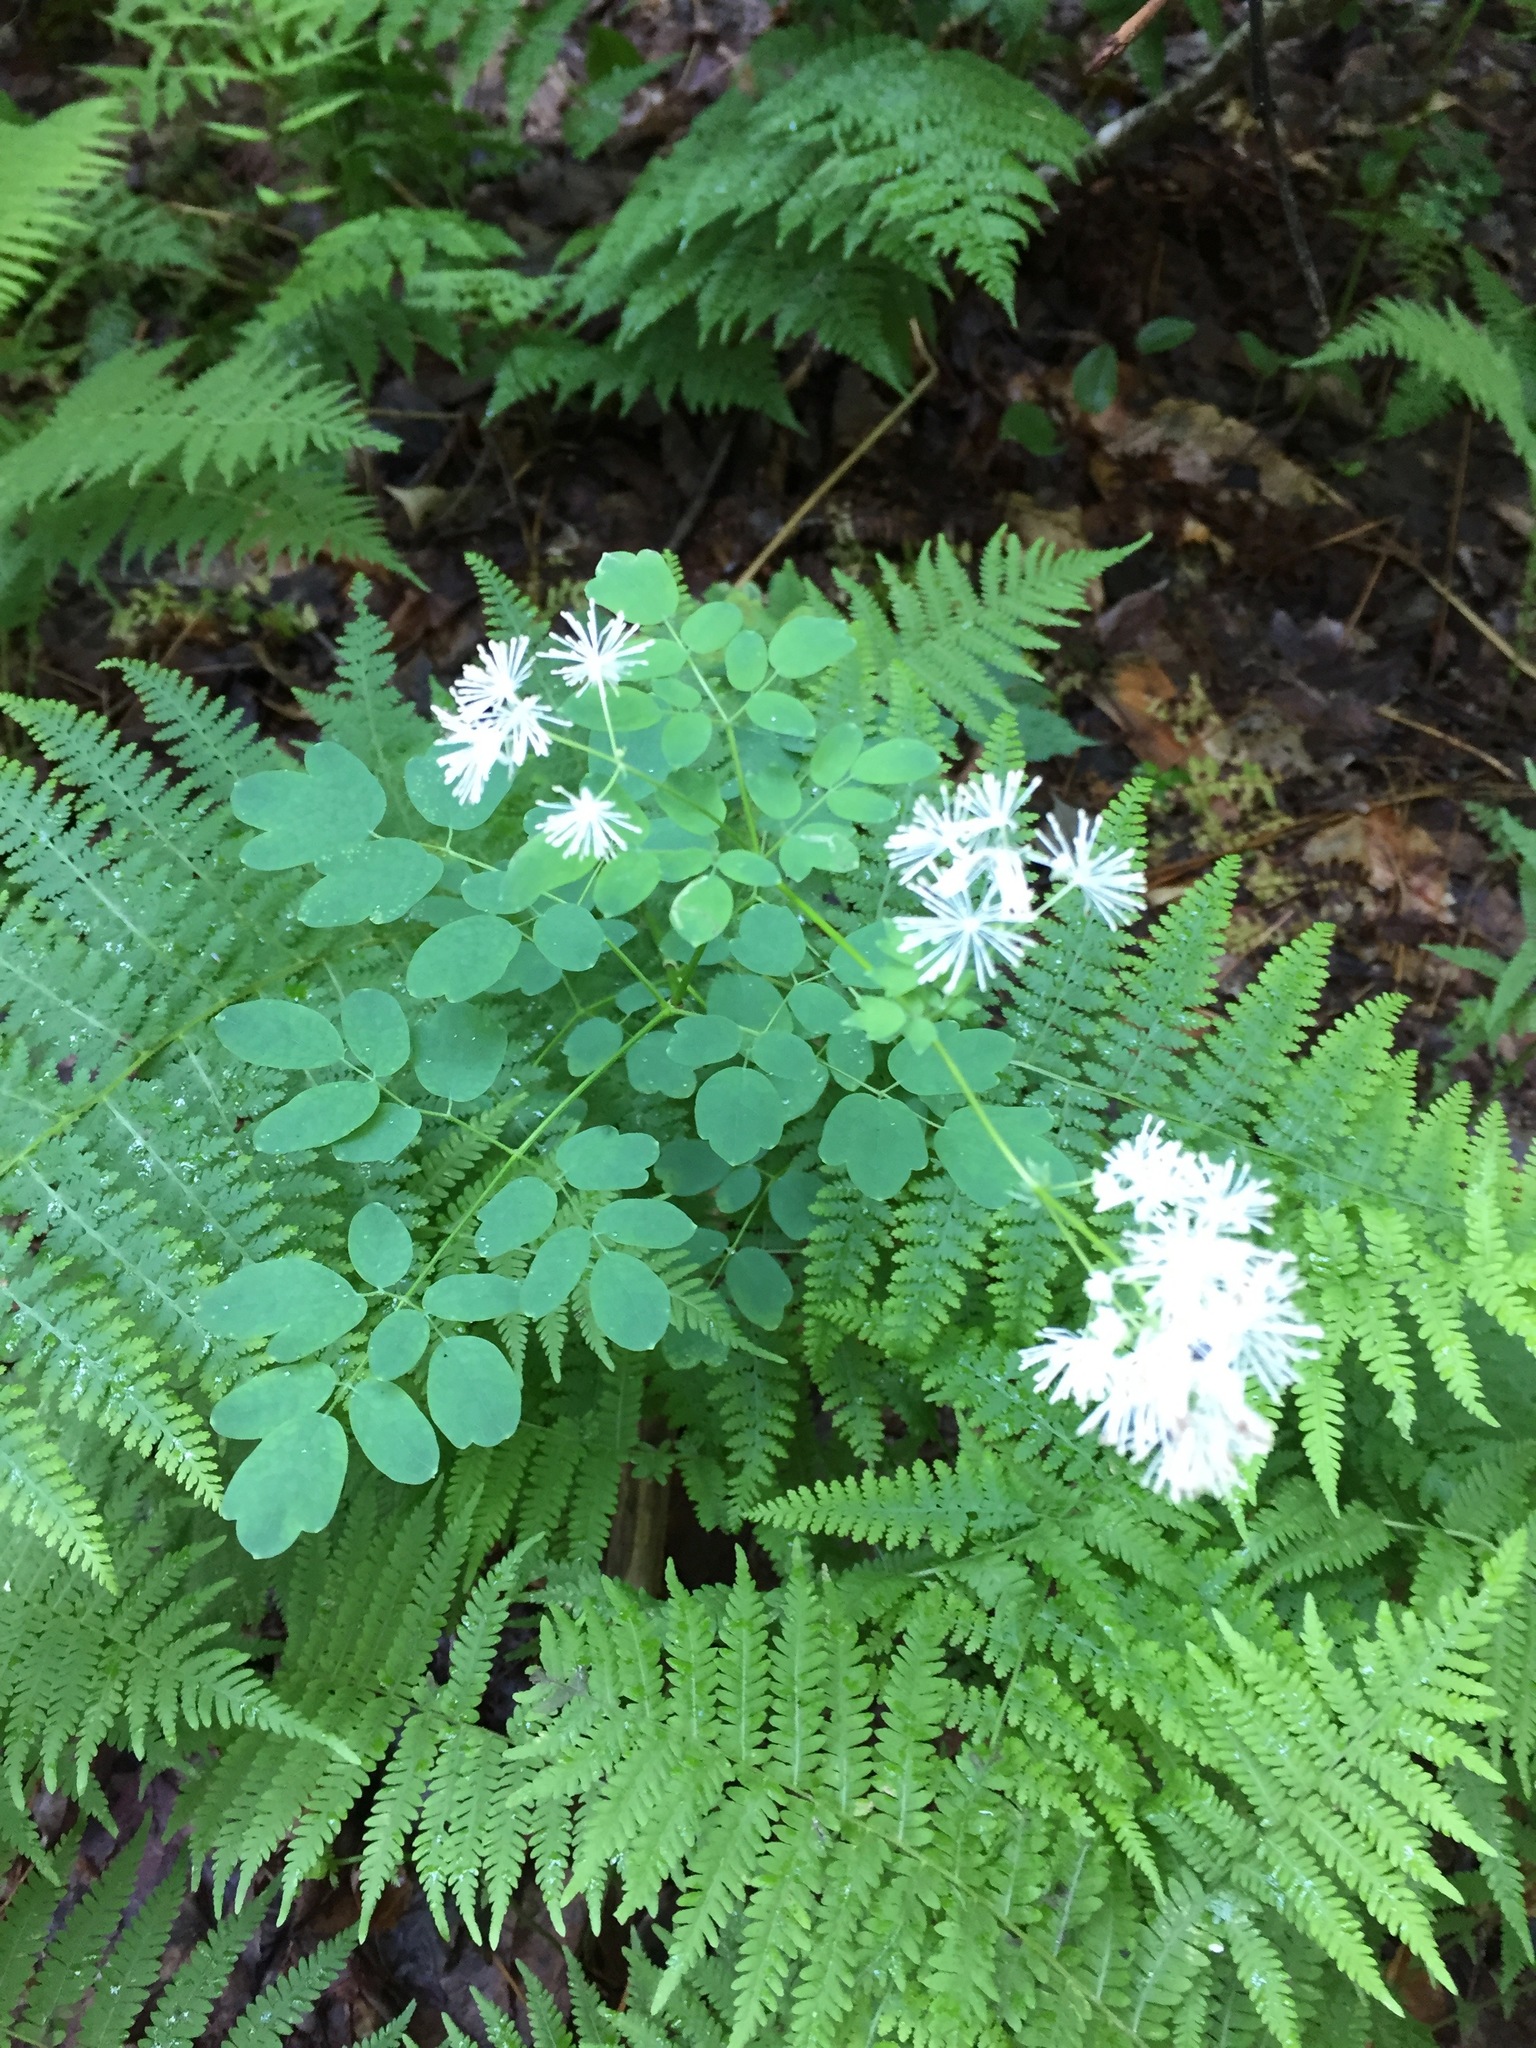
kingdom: Plantae
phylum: Tracheophyta
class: Magnoliopsida
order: Ranunculales
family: Ranunculaceae
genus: Thalictrum
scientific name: Thalictrum pubescens
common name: King-of-the-meadow
